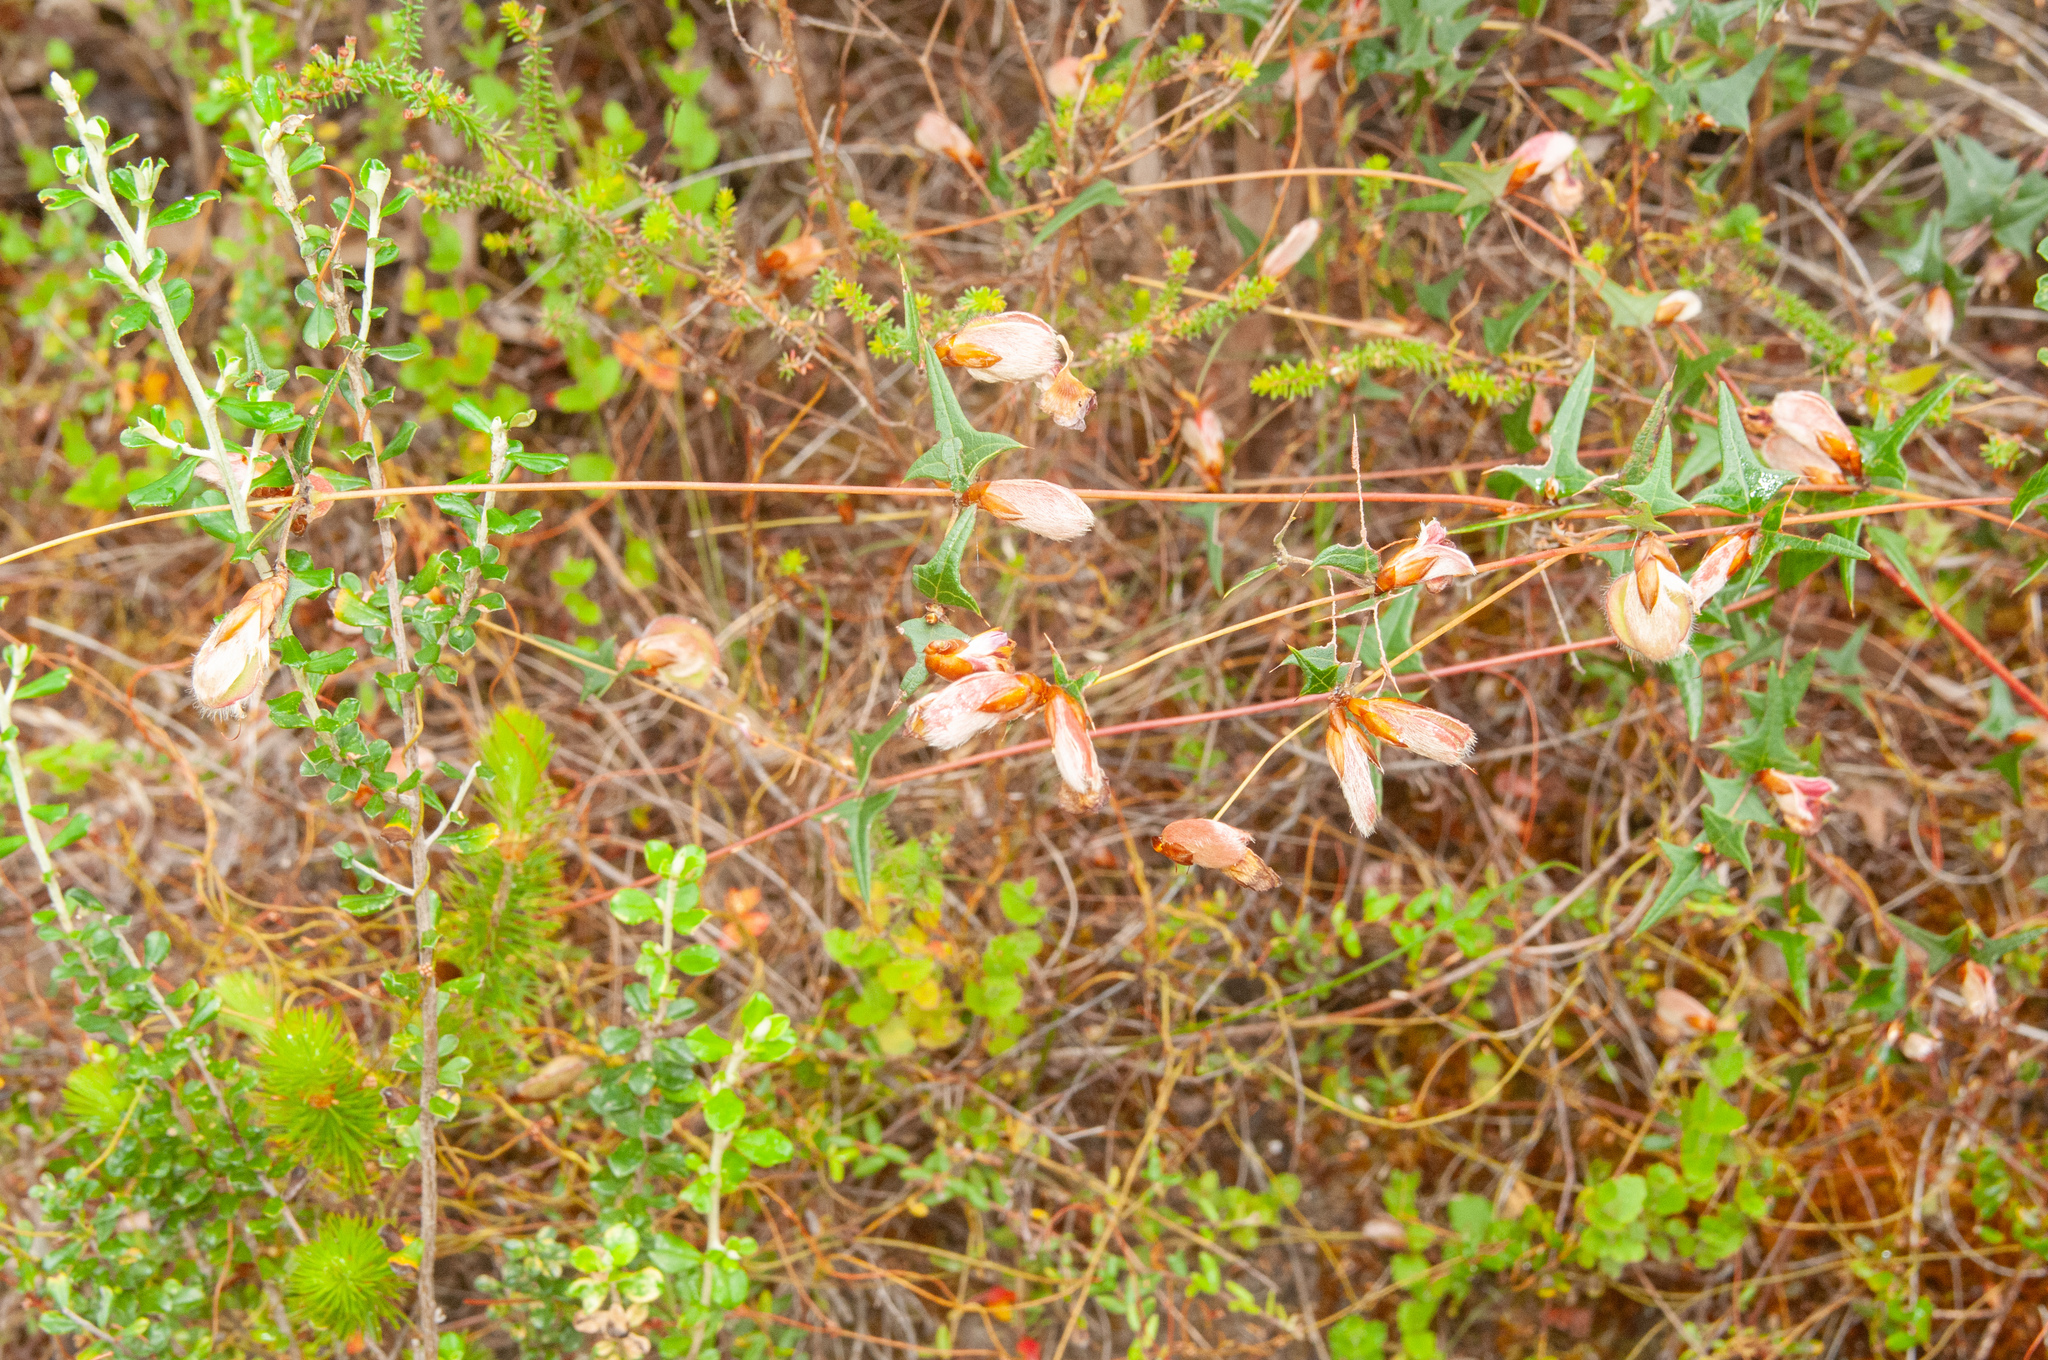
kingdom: Plantae
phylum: Tracheophyta
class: Magnoliopsida
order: Fabales
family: Fabaceae
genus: Platylobium
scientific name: Platylobium obtusangulum
